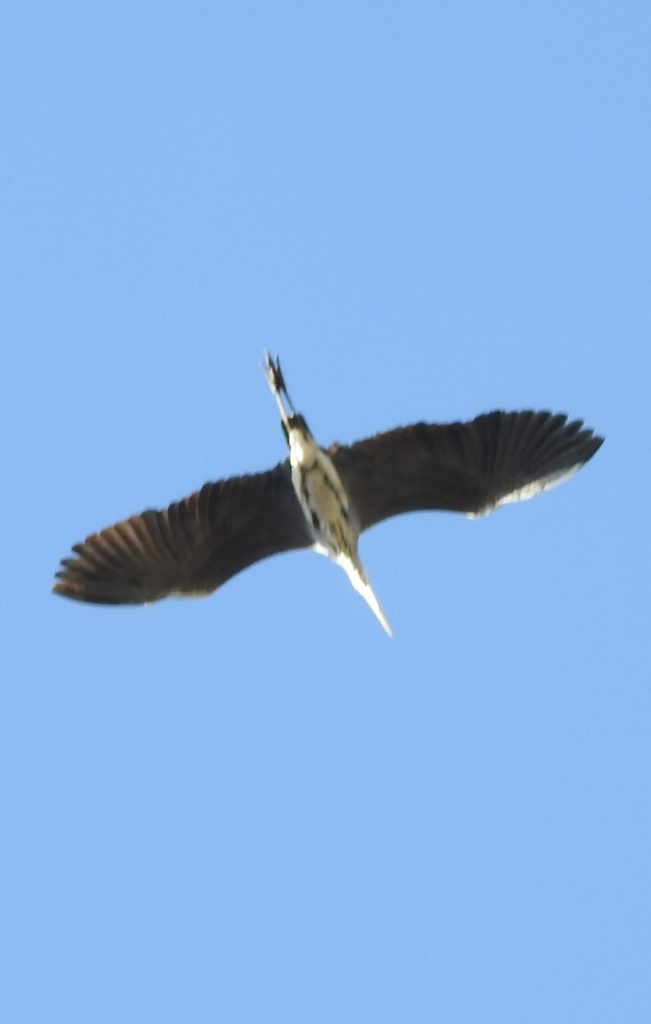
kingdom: Animalia
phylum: Chordata
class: Aves
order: Pelecaniformes
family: Ardeidae
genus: Ardea
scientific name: Ardea cinerea
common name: Grey heron
